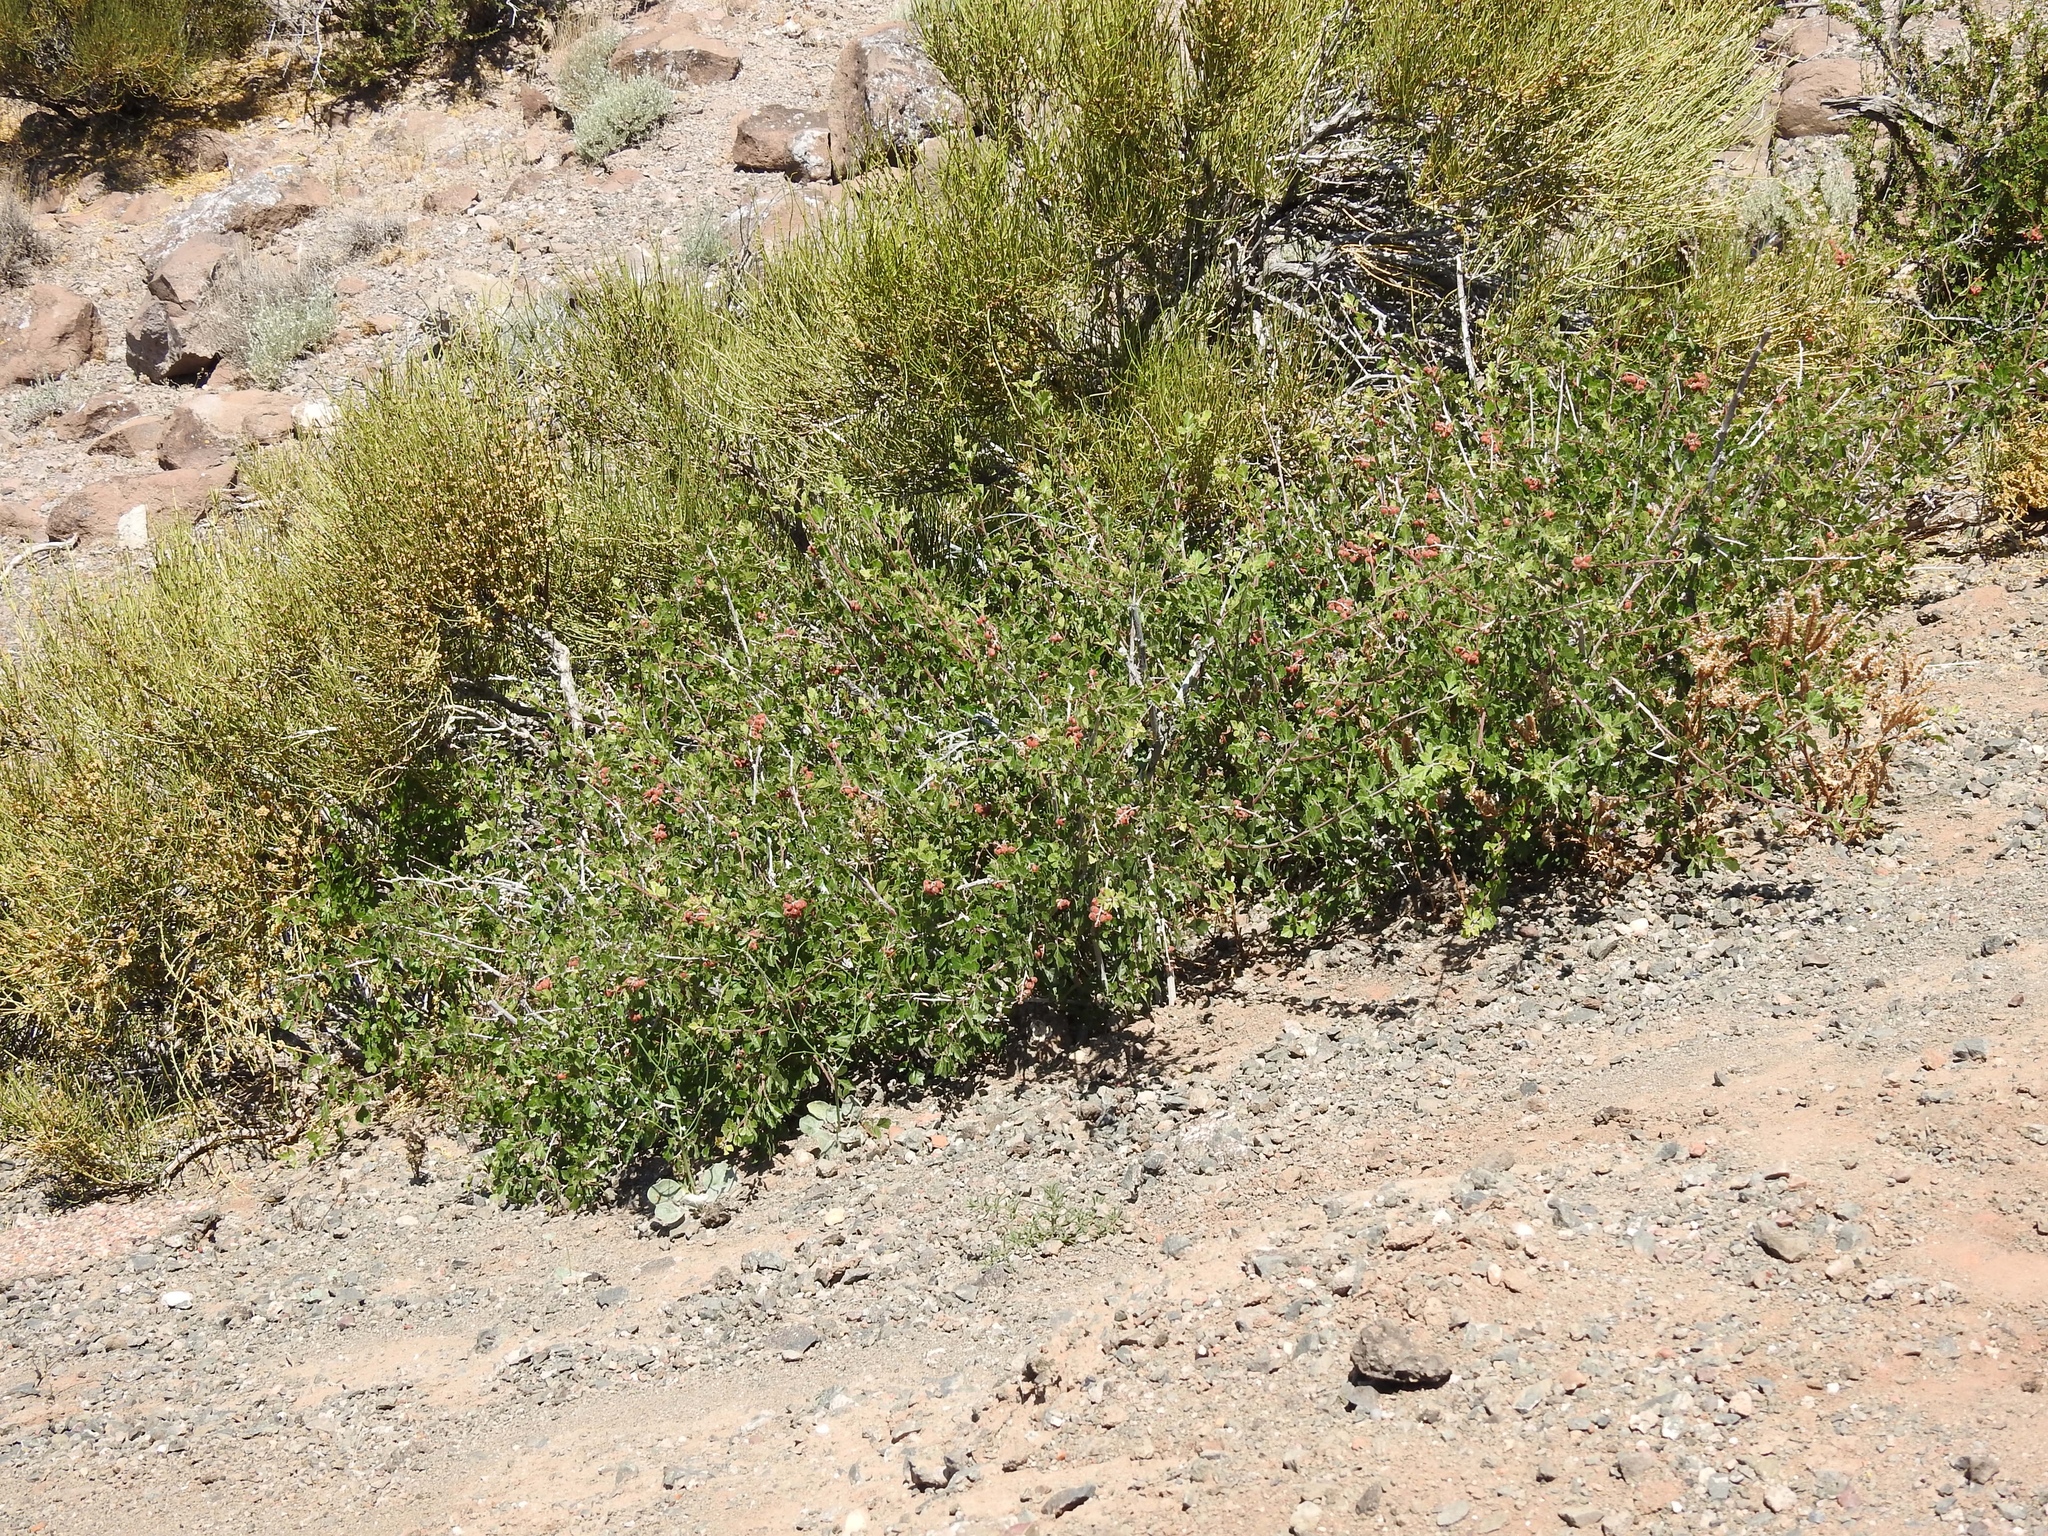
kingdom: Plantae
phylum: Tracheophyta
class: Magnoliopsida
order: Sapindales
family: Anacardiaceae
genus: Rhus
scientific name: Rhus aromatica
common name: Aromatic sumac
